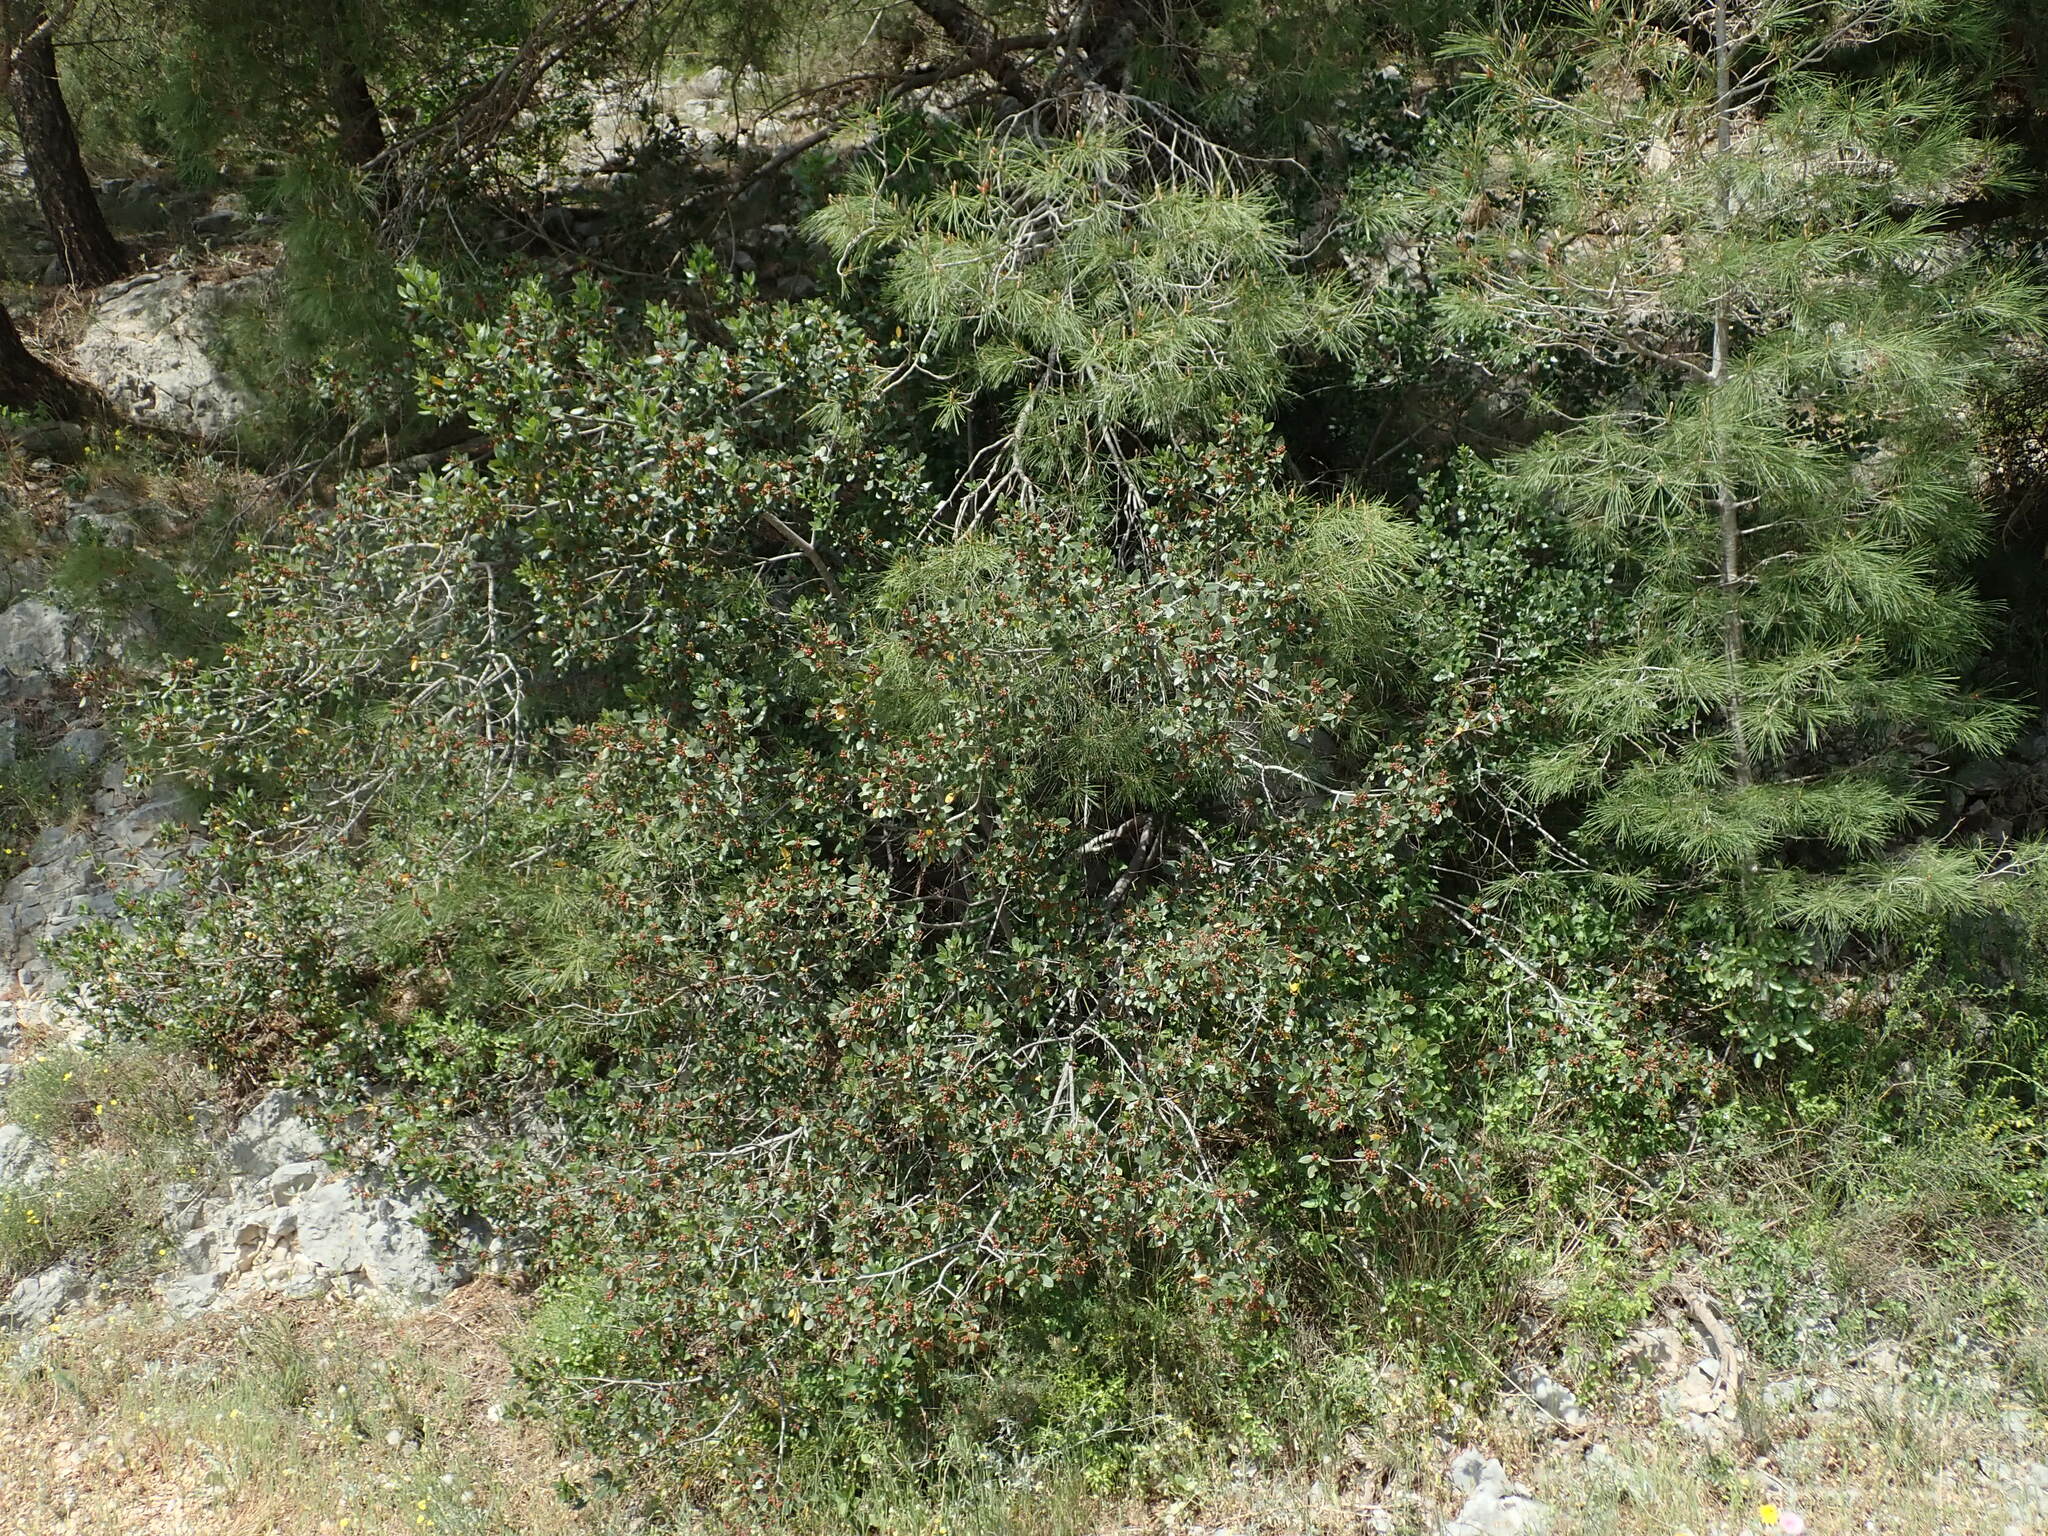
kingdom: Plantae
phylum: Tracheophyta
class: Magnoliopsida
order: Rosales
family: Rhamnaceae
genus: Rhamnus
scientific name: Rhamnus alaternus
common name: Mediterranean buckthorn
